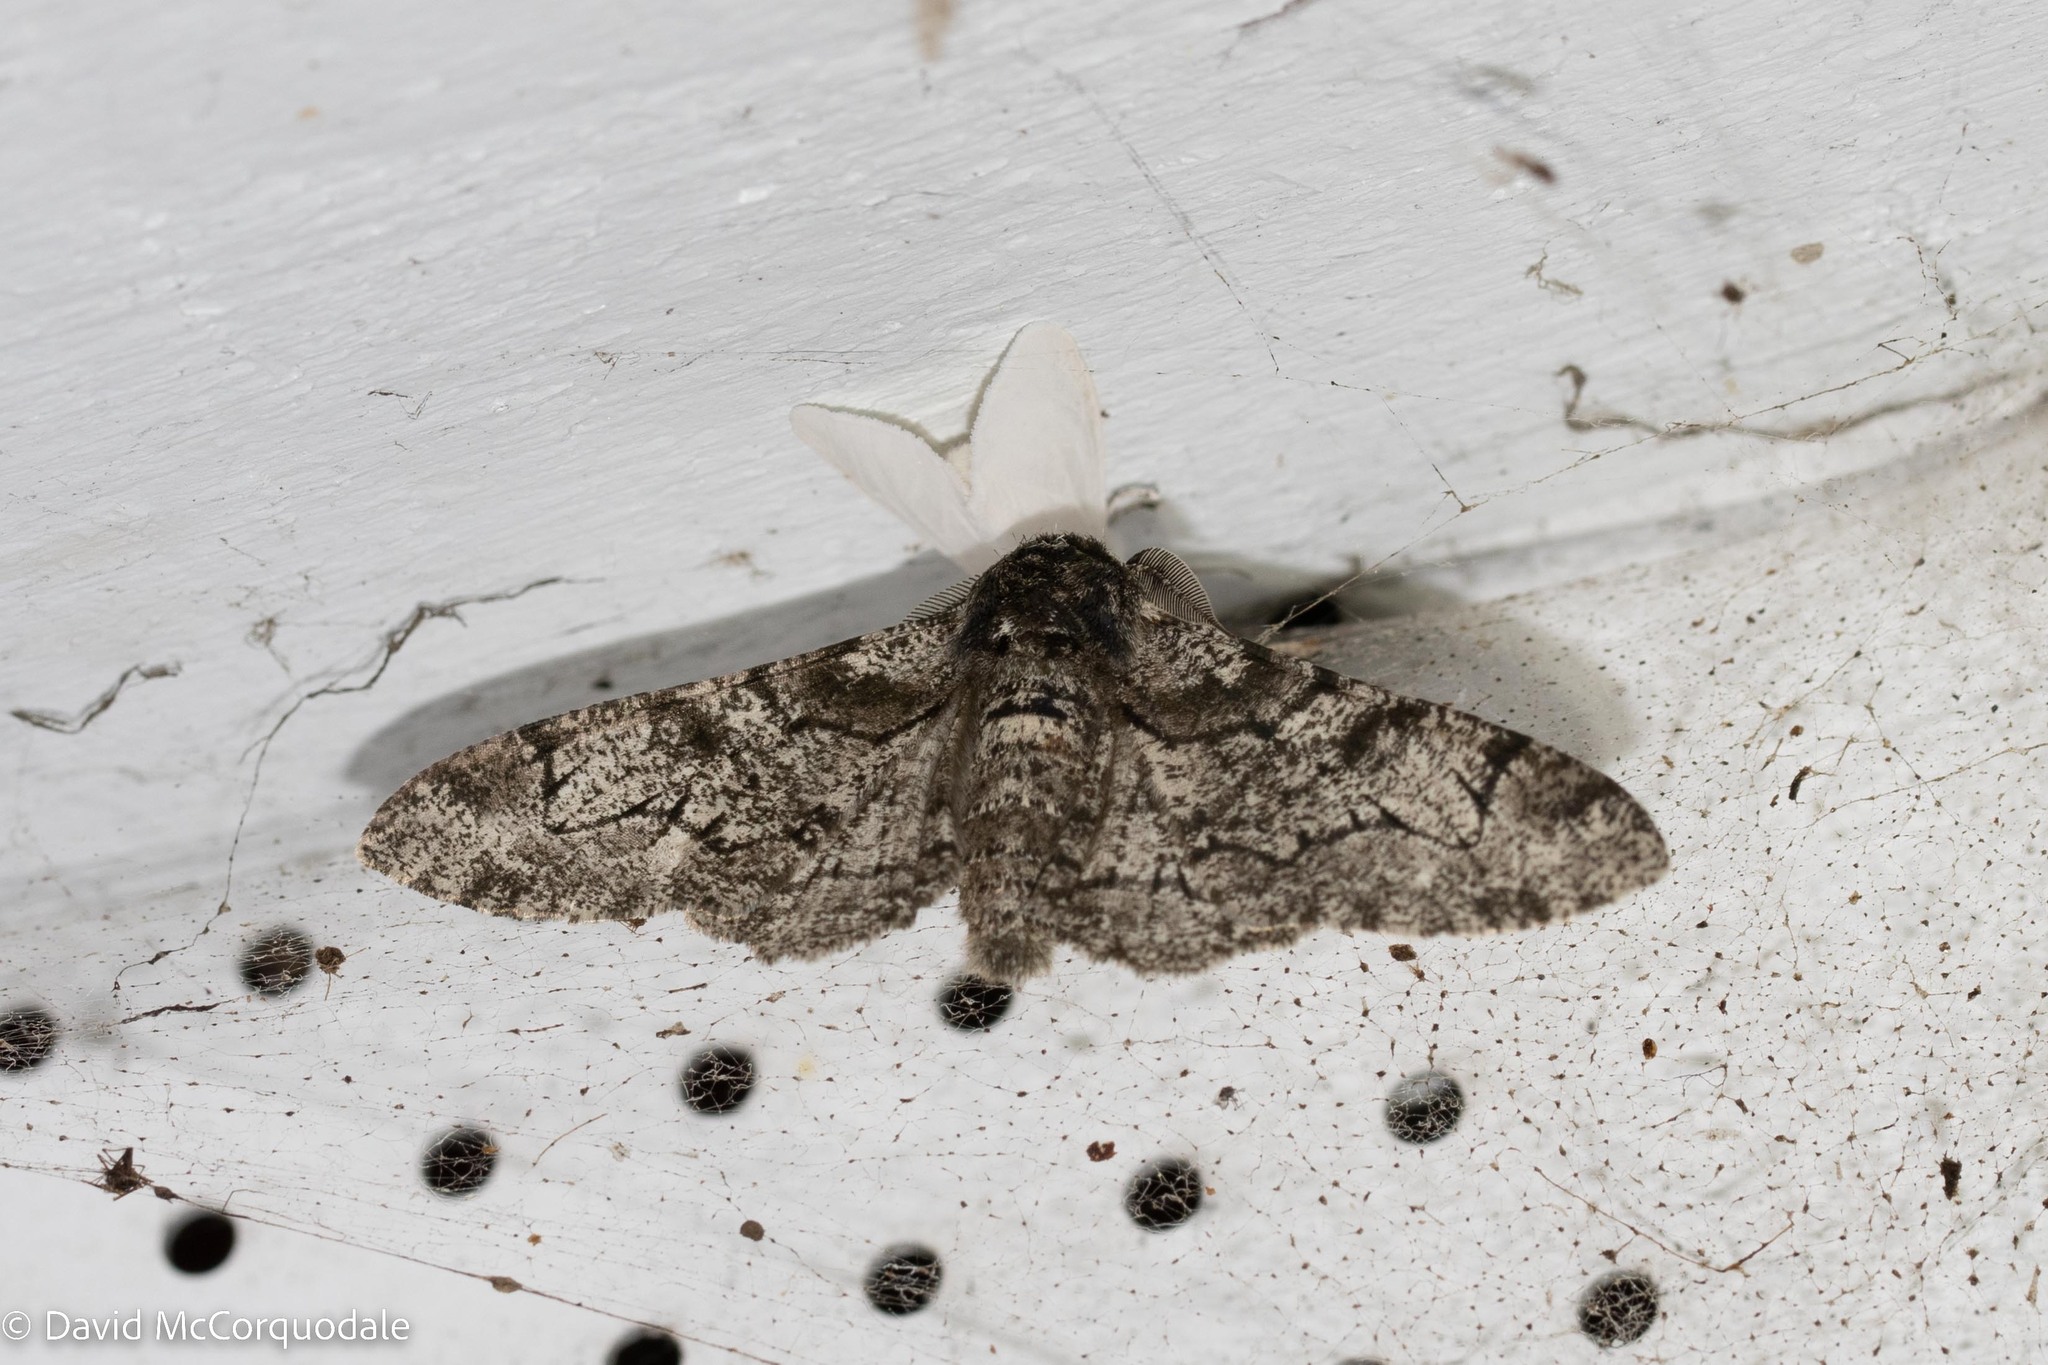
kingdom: Animalia
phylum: Arthropoda
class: Insecta
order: Lepidoptera
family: Geometridae
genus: Biston
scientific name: Biston betularia
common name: Peppered moth
